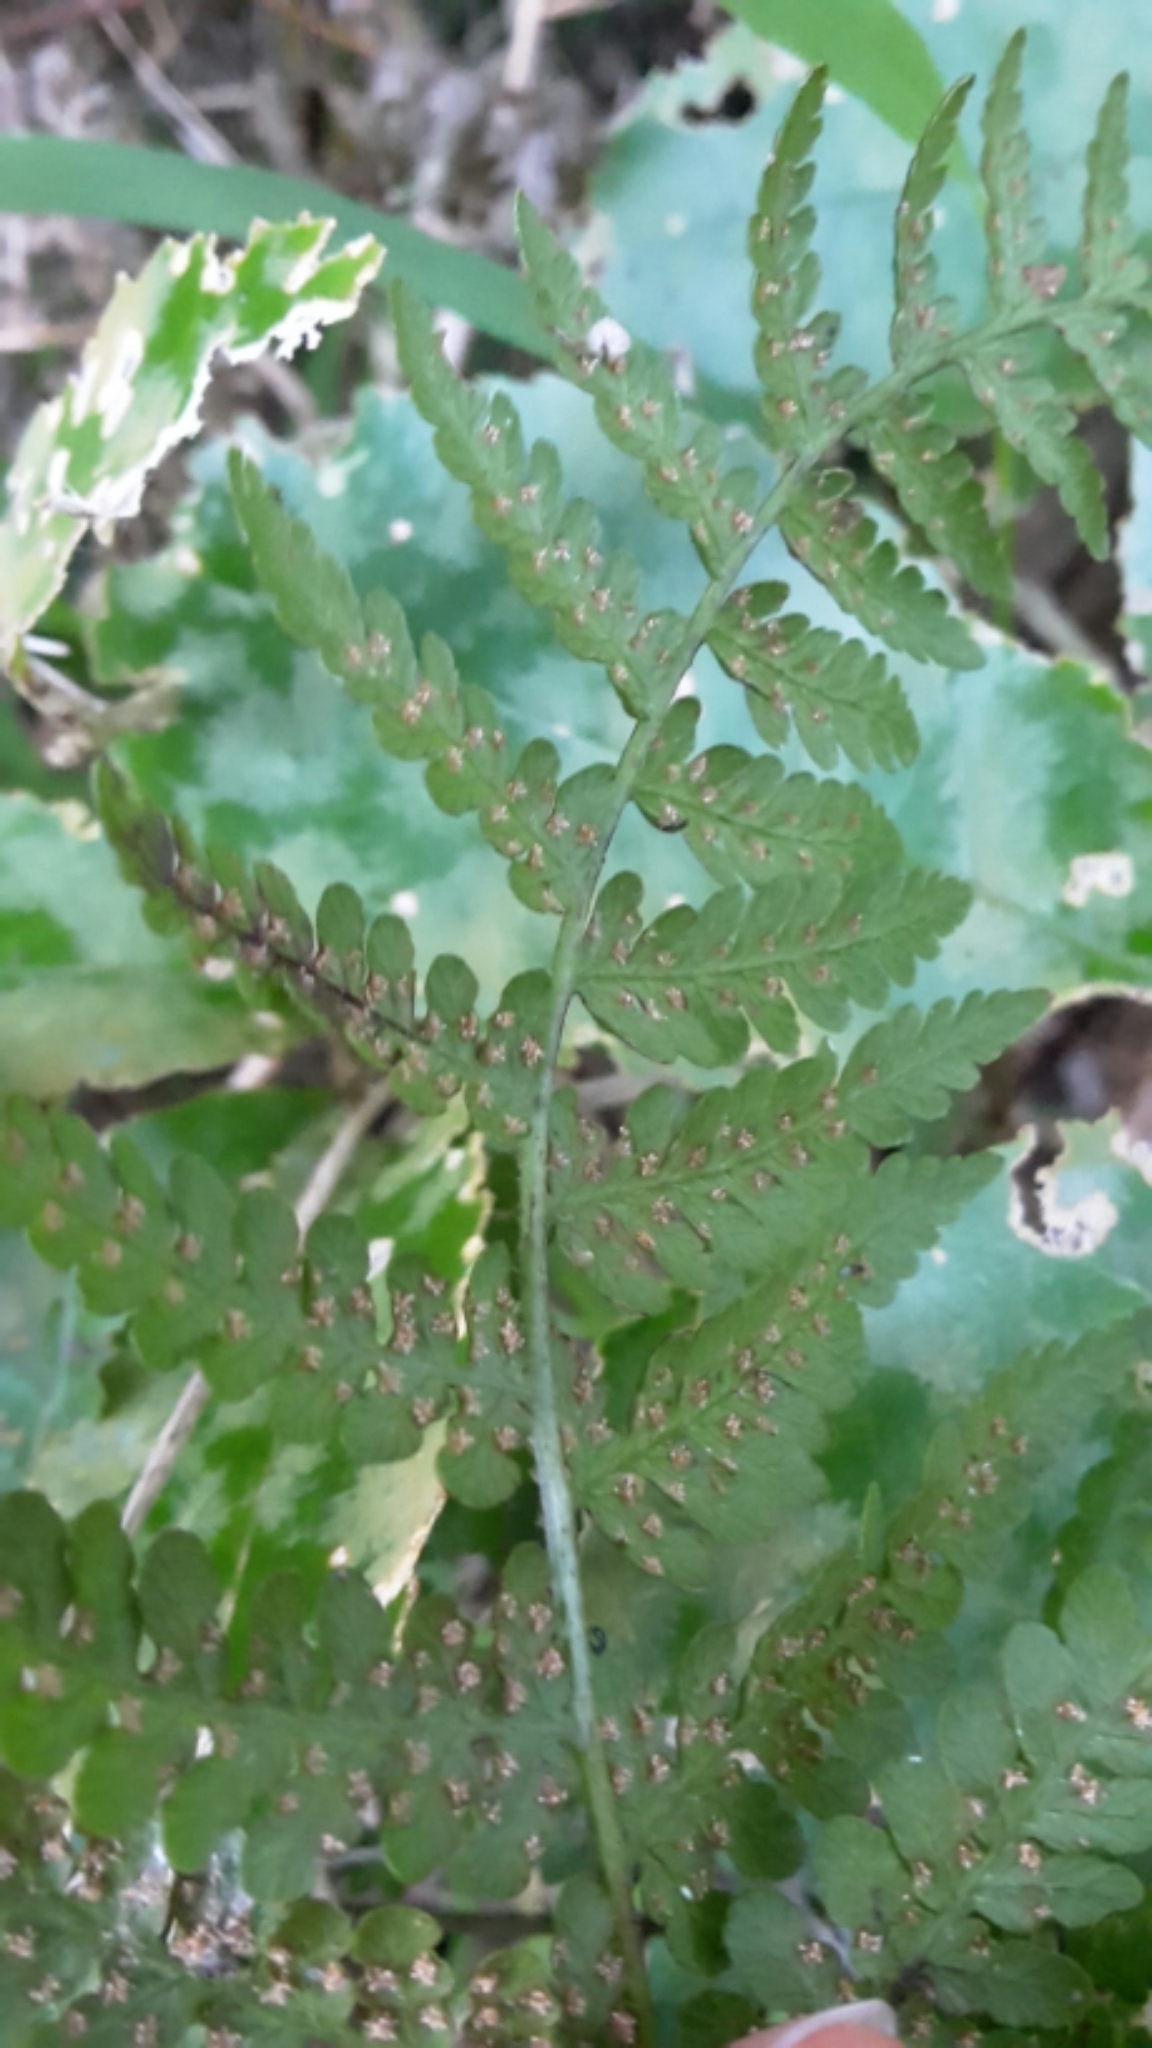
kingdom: Plantae
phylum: Tracheophyta
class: Polypodiopsida
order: Polypodiales
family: Dennstaedtiaceae
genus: Hypolepis
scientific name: Hypolepis ambigua
